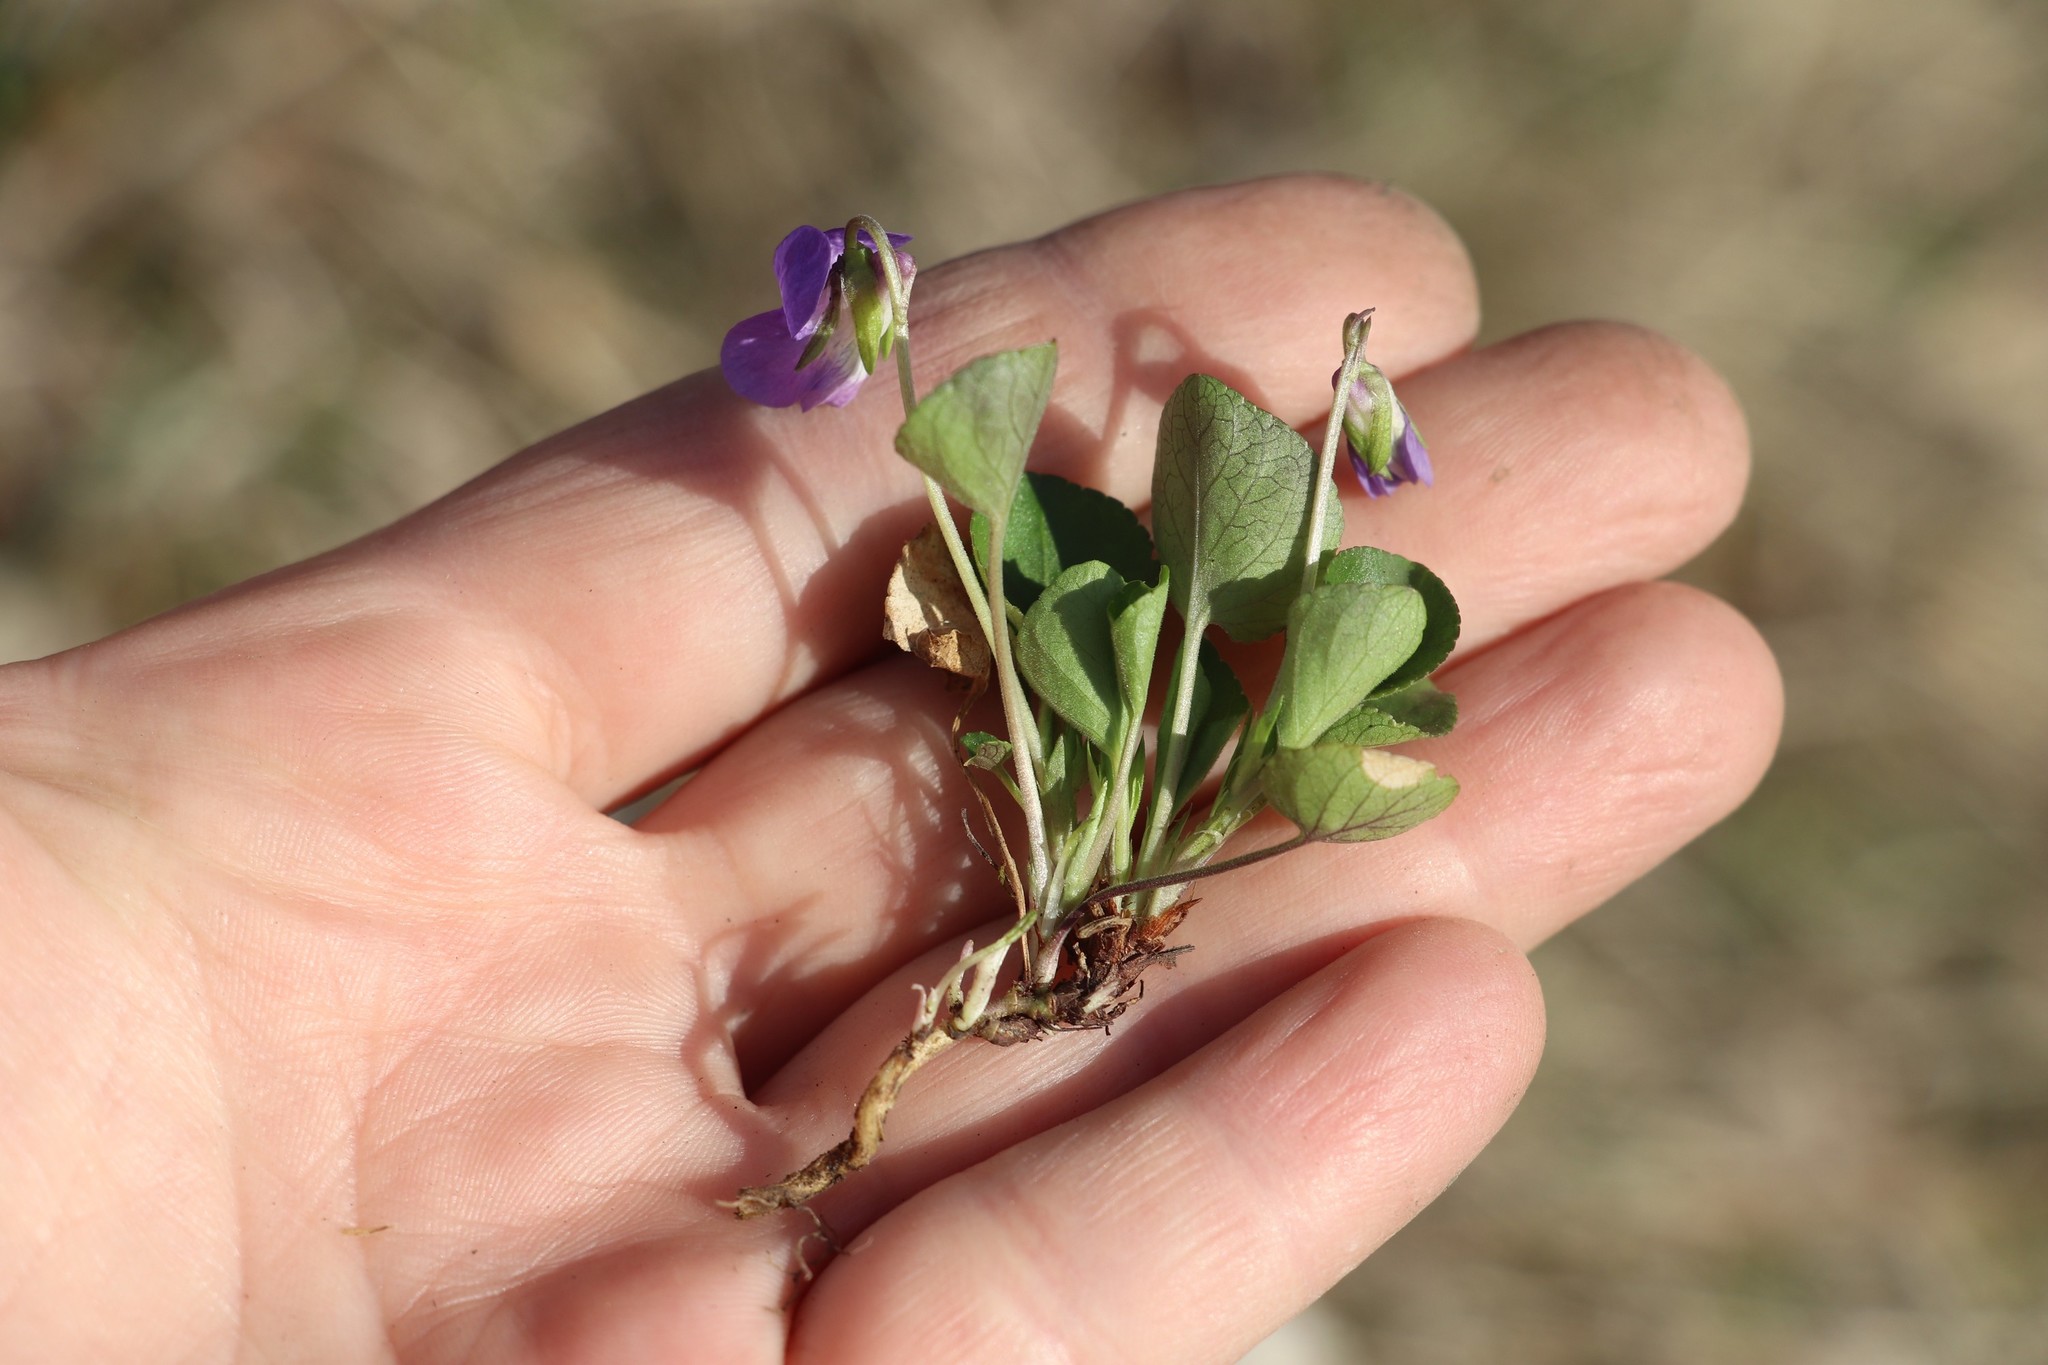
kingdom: Plantae
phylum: Tracheophyta
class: Magnoliopsida
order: Malpighiales
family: Violaceae
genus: Viola
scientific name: Viola rupestris
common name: Teesdale violet
